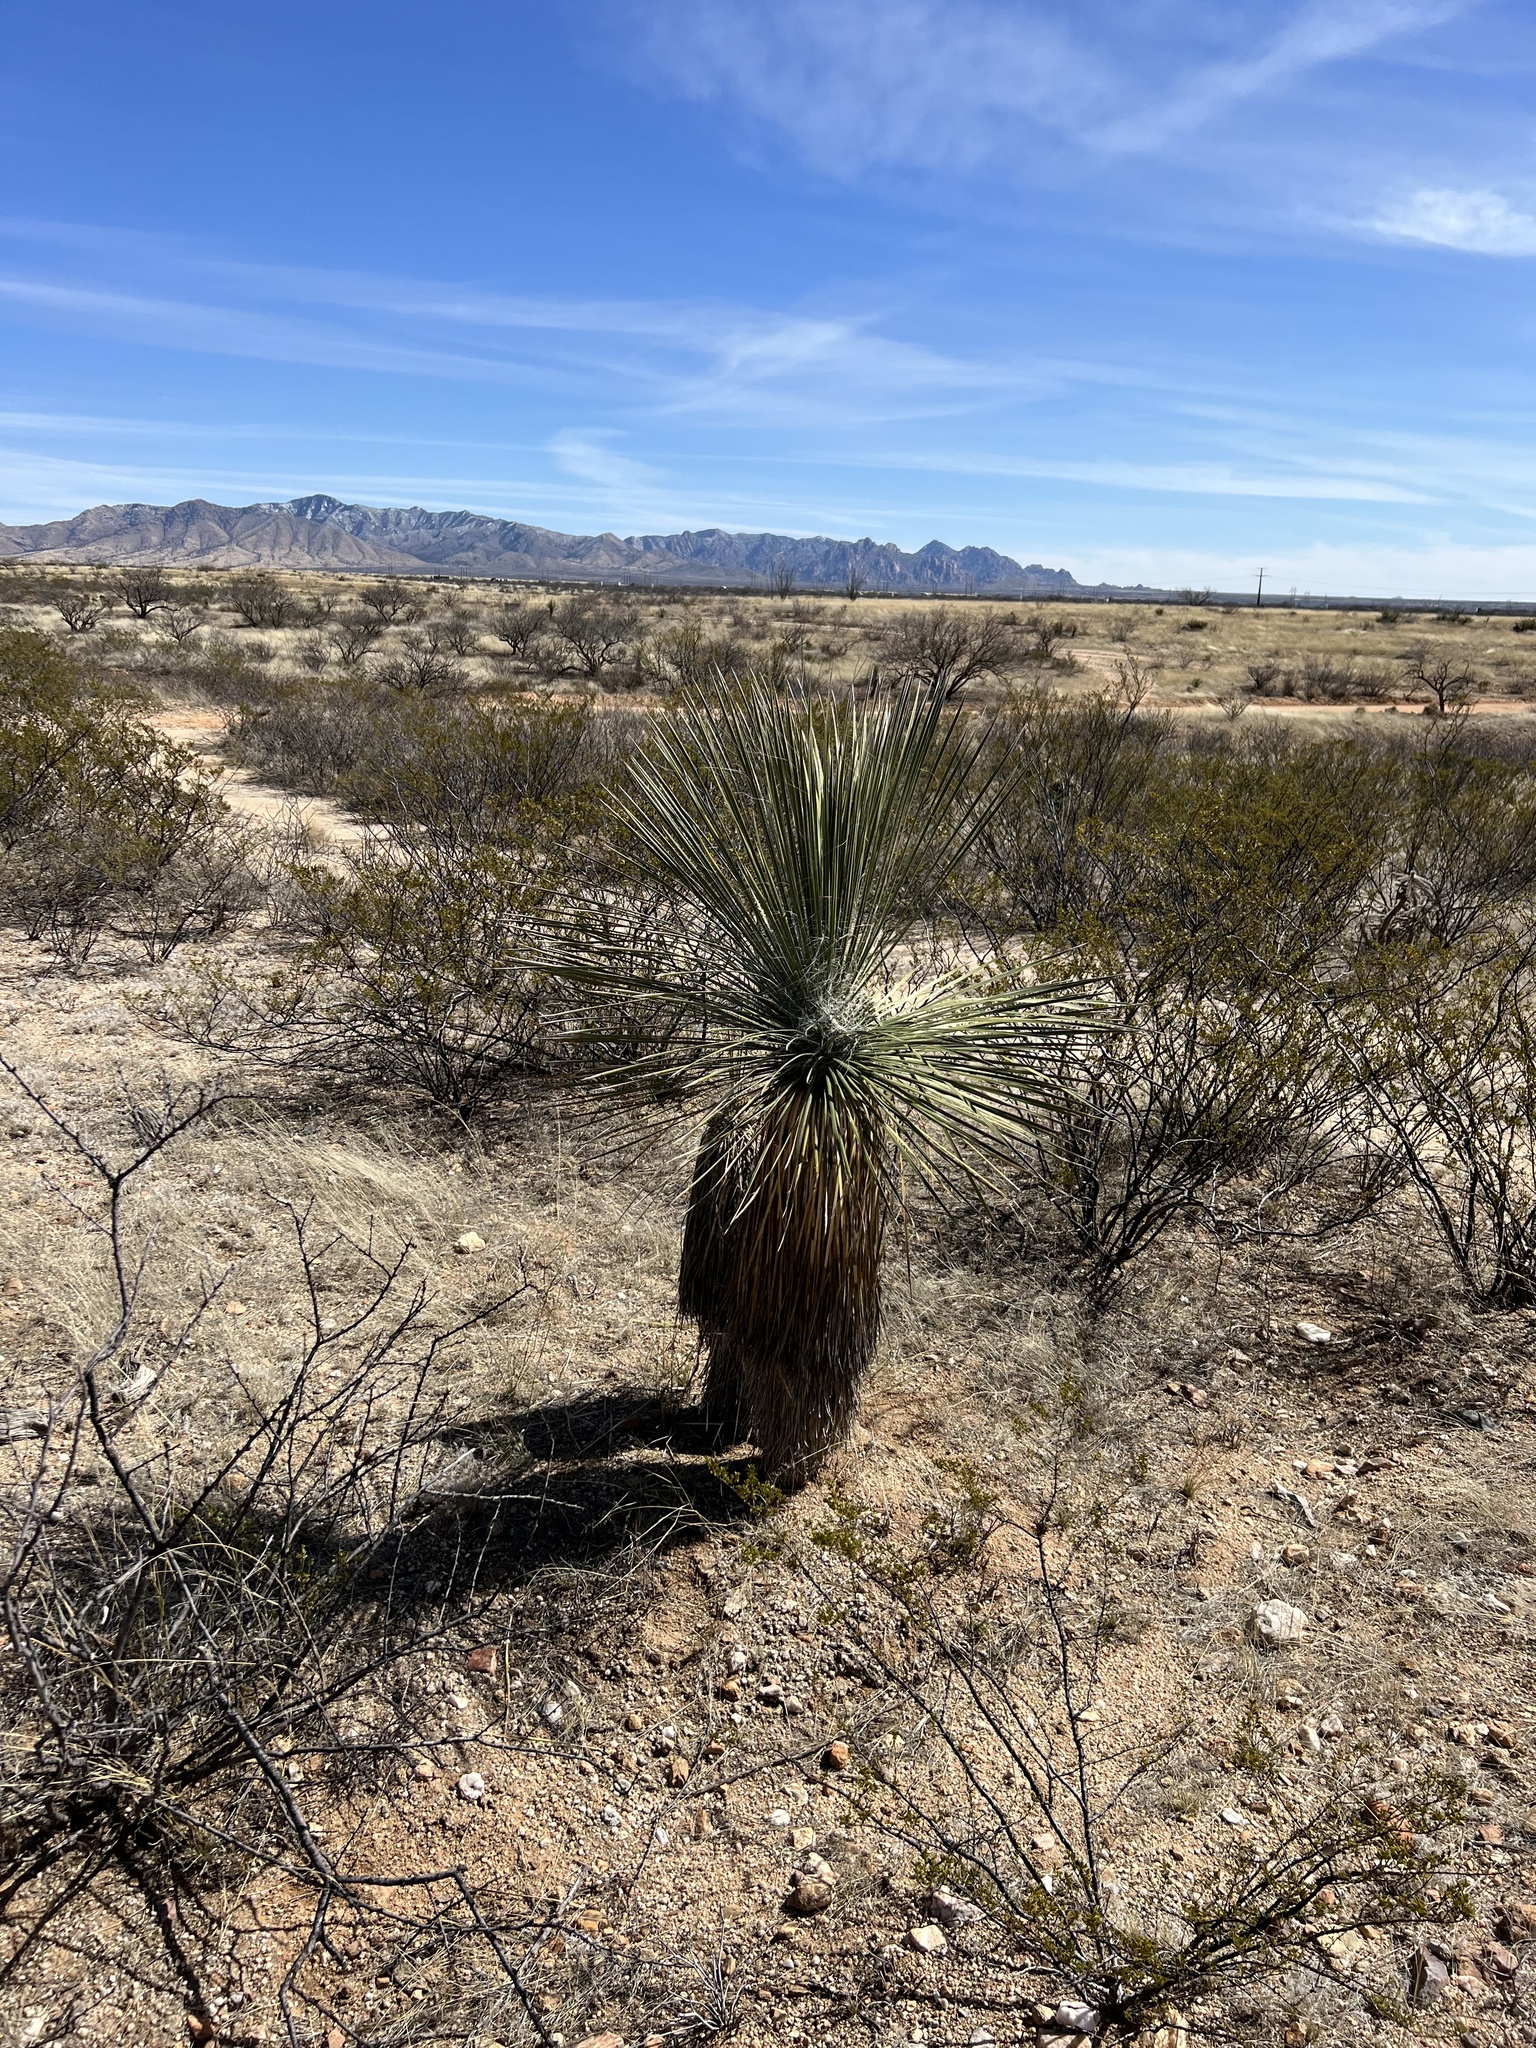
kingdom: Plantae
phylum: Tracheophyta
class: Liliopsida
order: Asparagales
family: Asparagaceae
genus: Yucca
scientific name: Yucca elata
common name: Palmella
